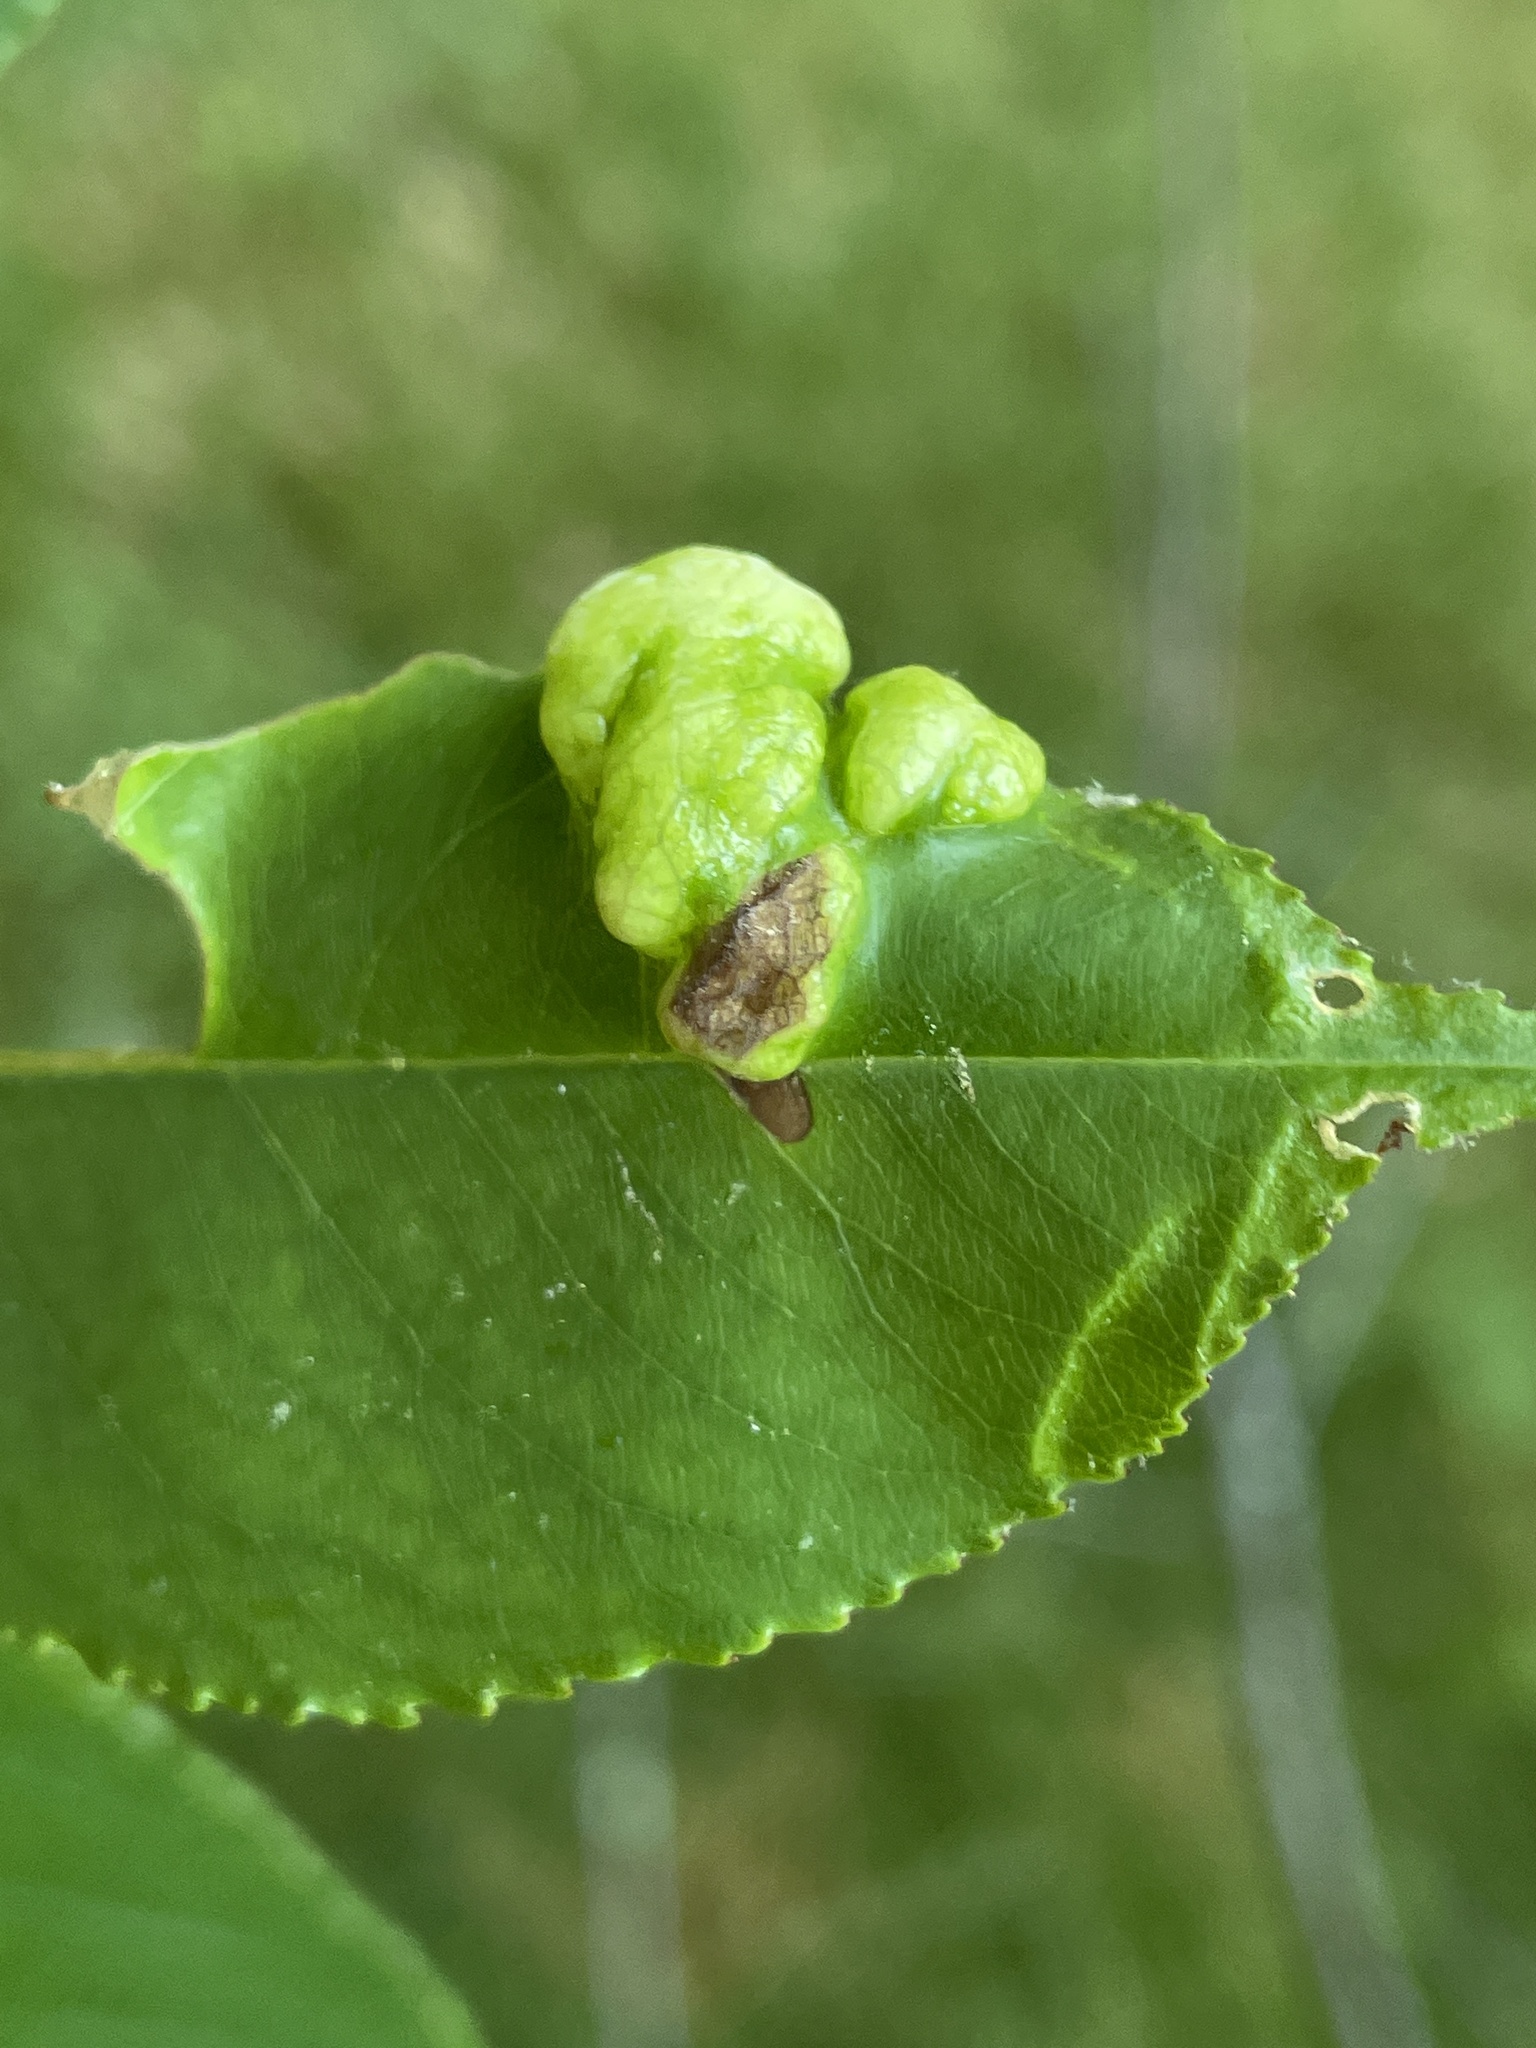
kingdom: Fungi
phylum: Ascomycota
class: Taphrinomycetes
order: Taphrinales
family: Taphrinaceae
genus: Taphrina
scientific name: Taphrina farlowii
